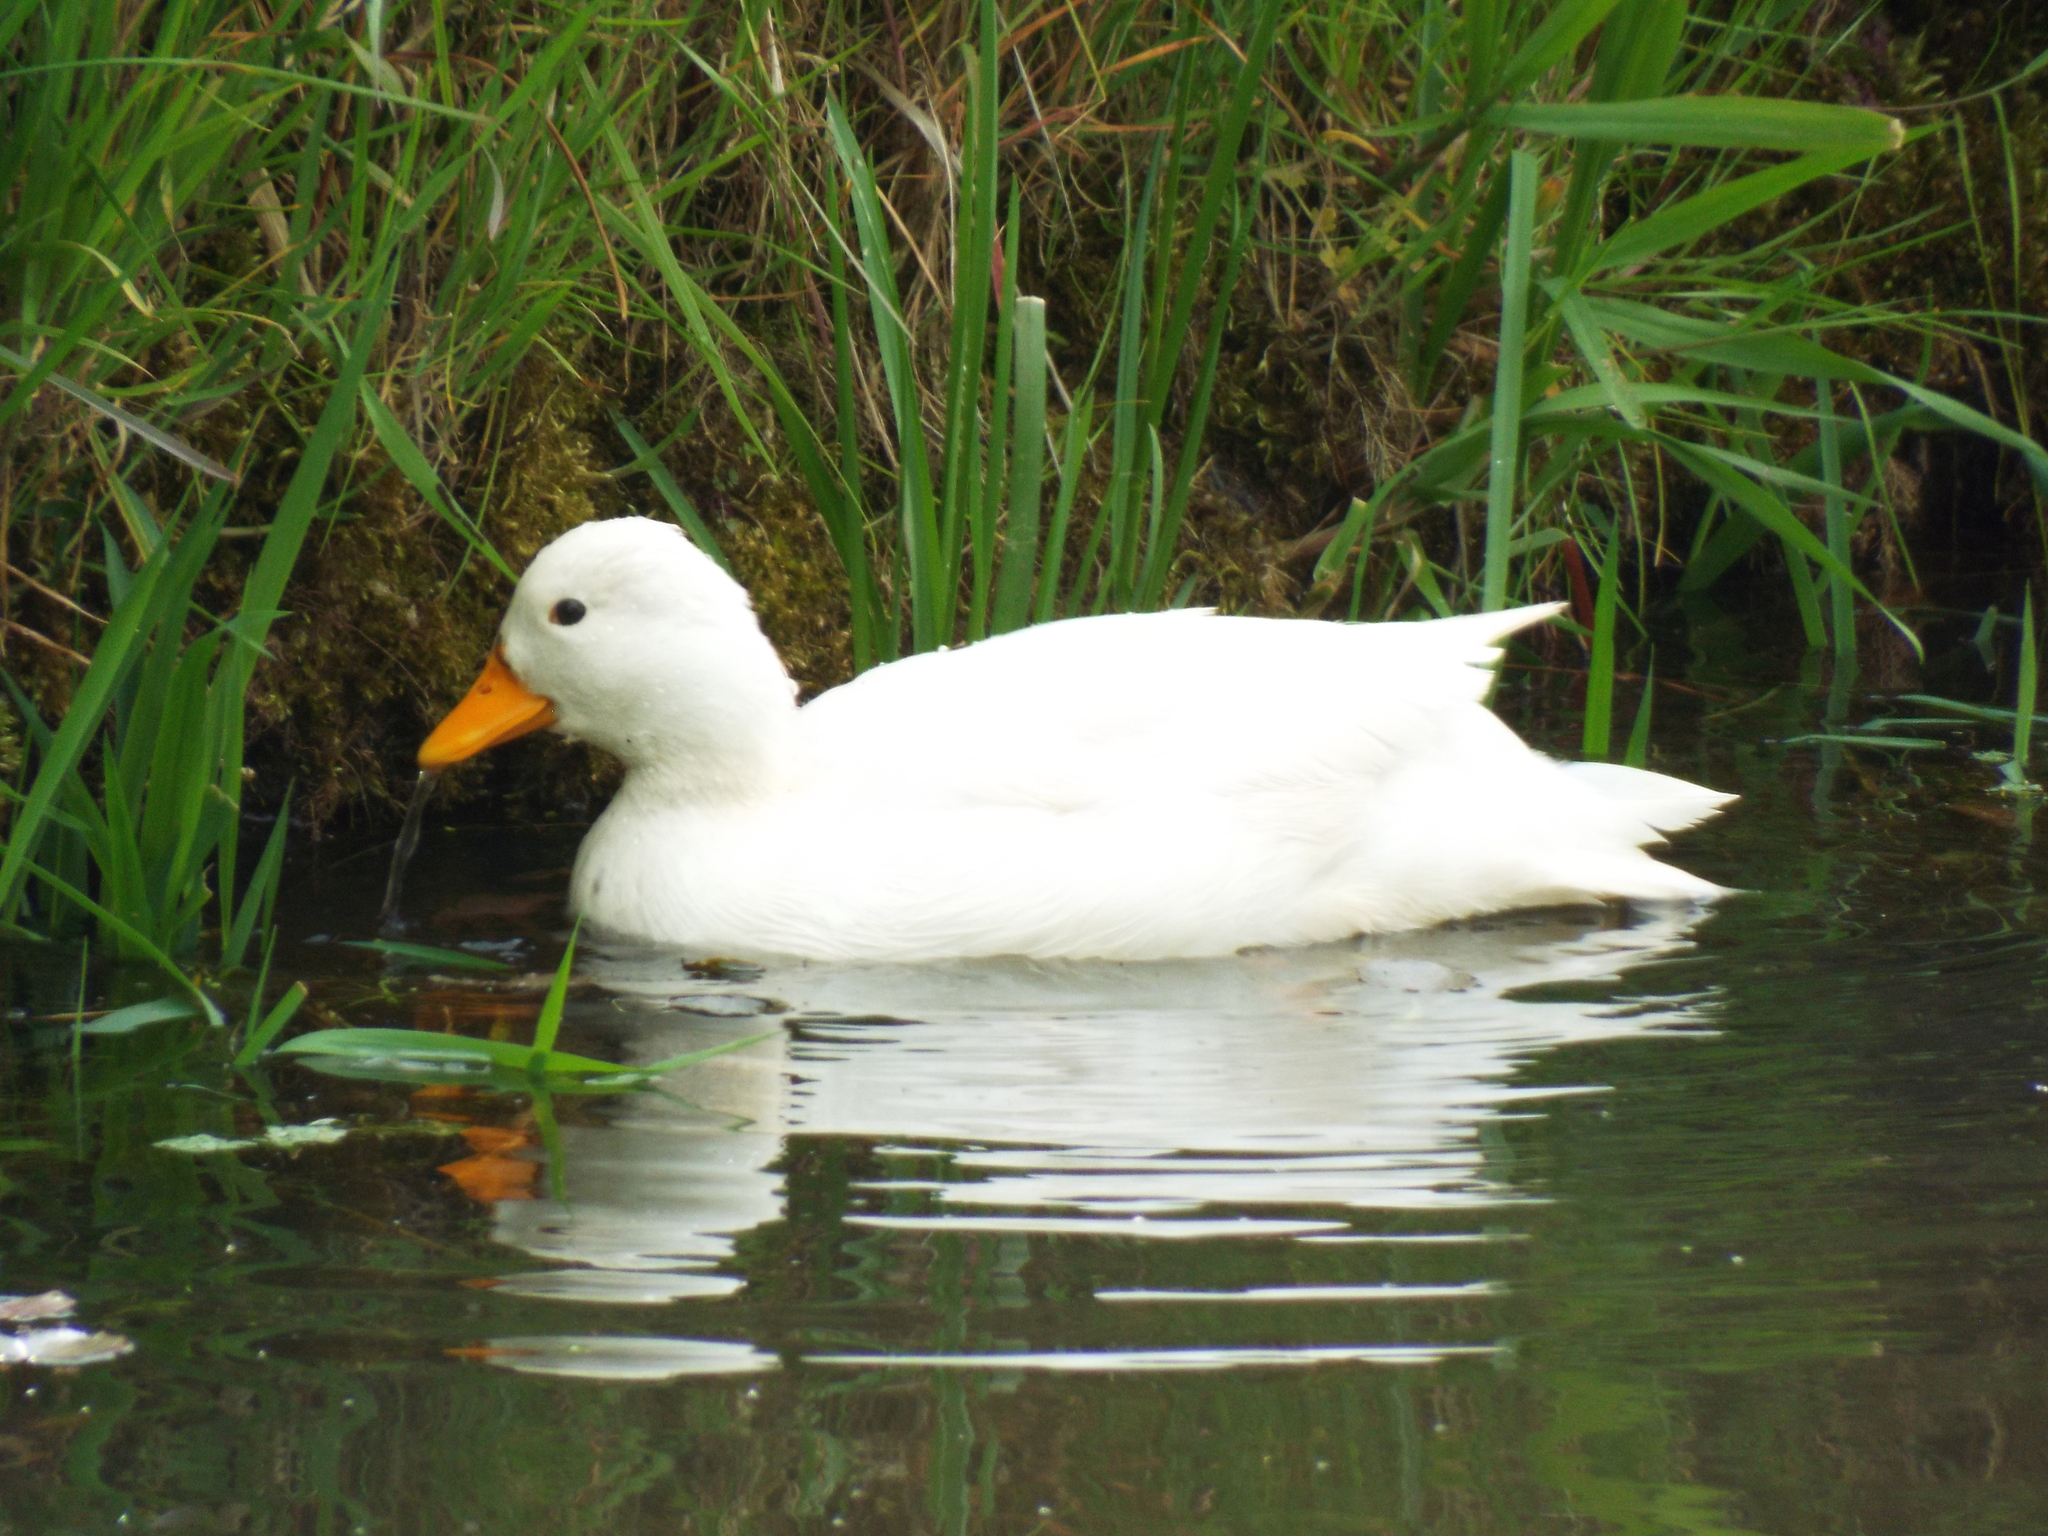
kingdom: Animalia
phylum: Chordata
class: Aves
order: Anseriformes
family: Anatidae
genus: Anas
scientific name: Anas platyrhynchos
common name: Mallard
